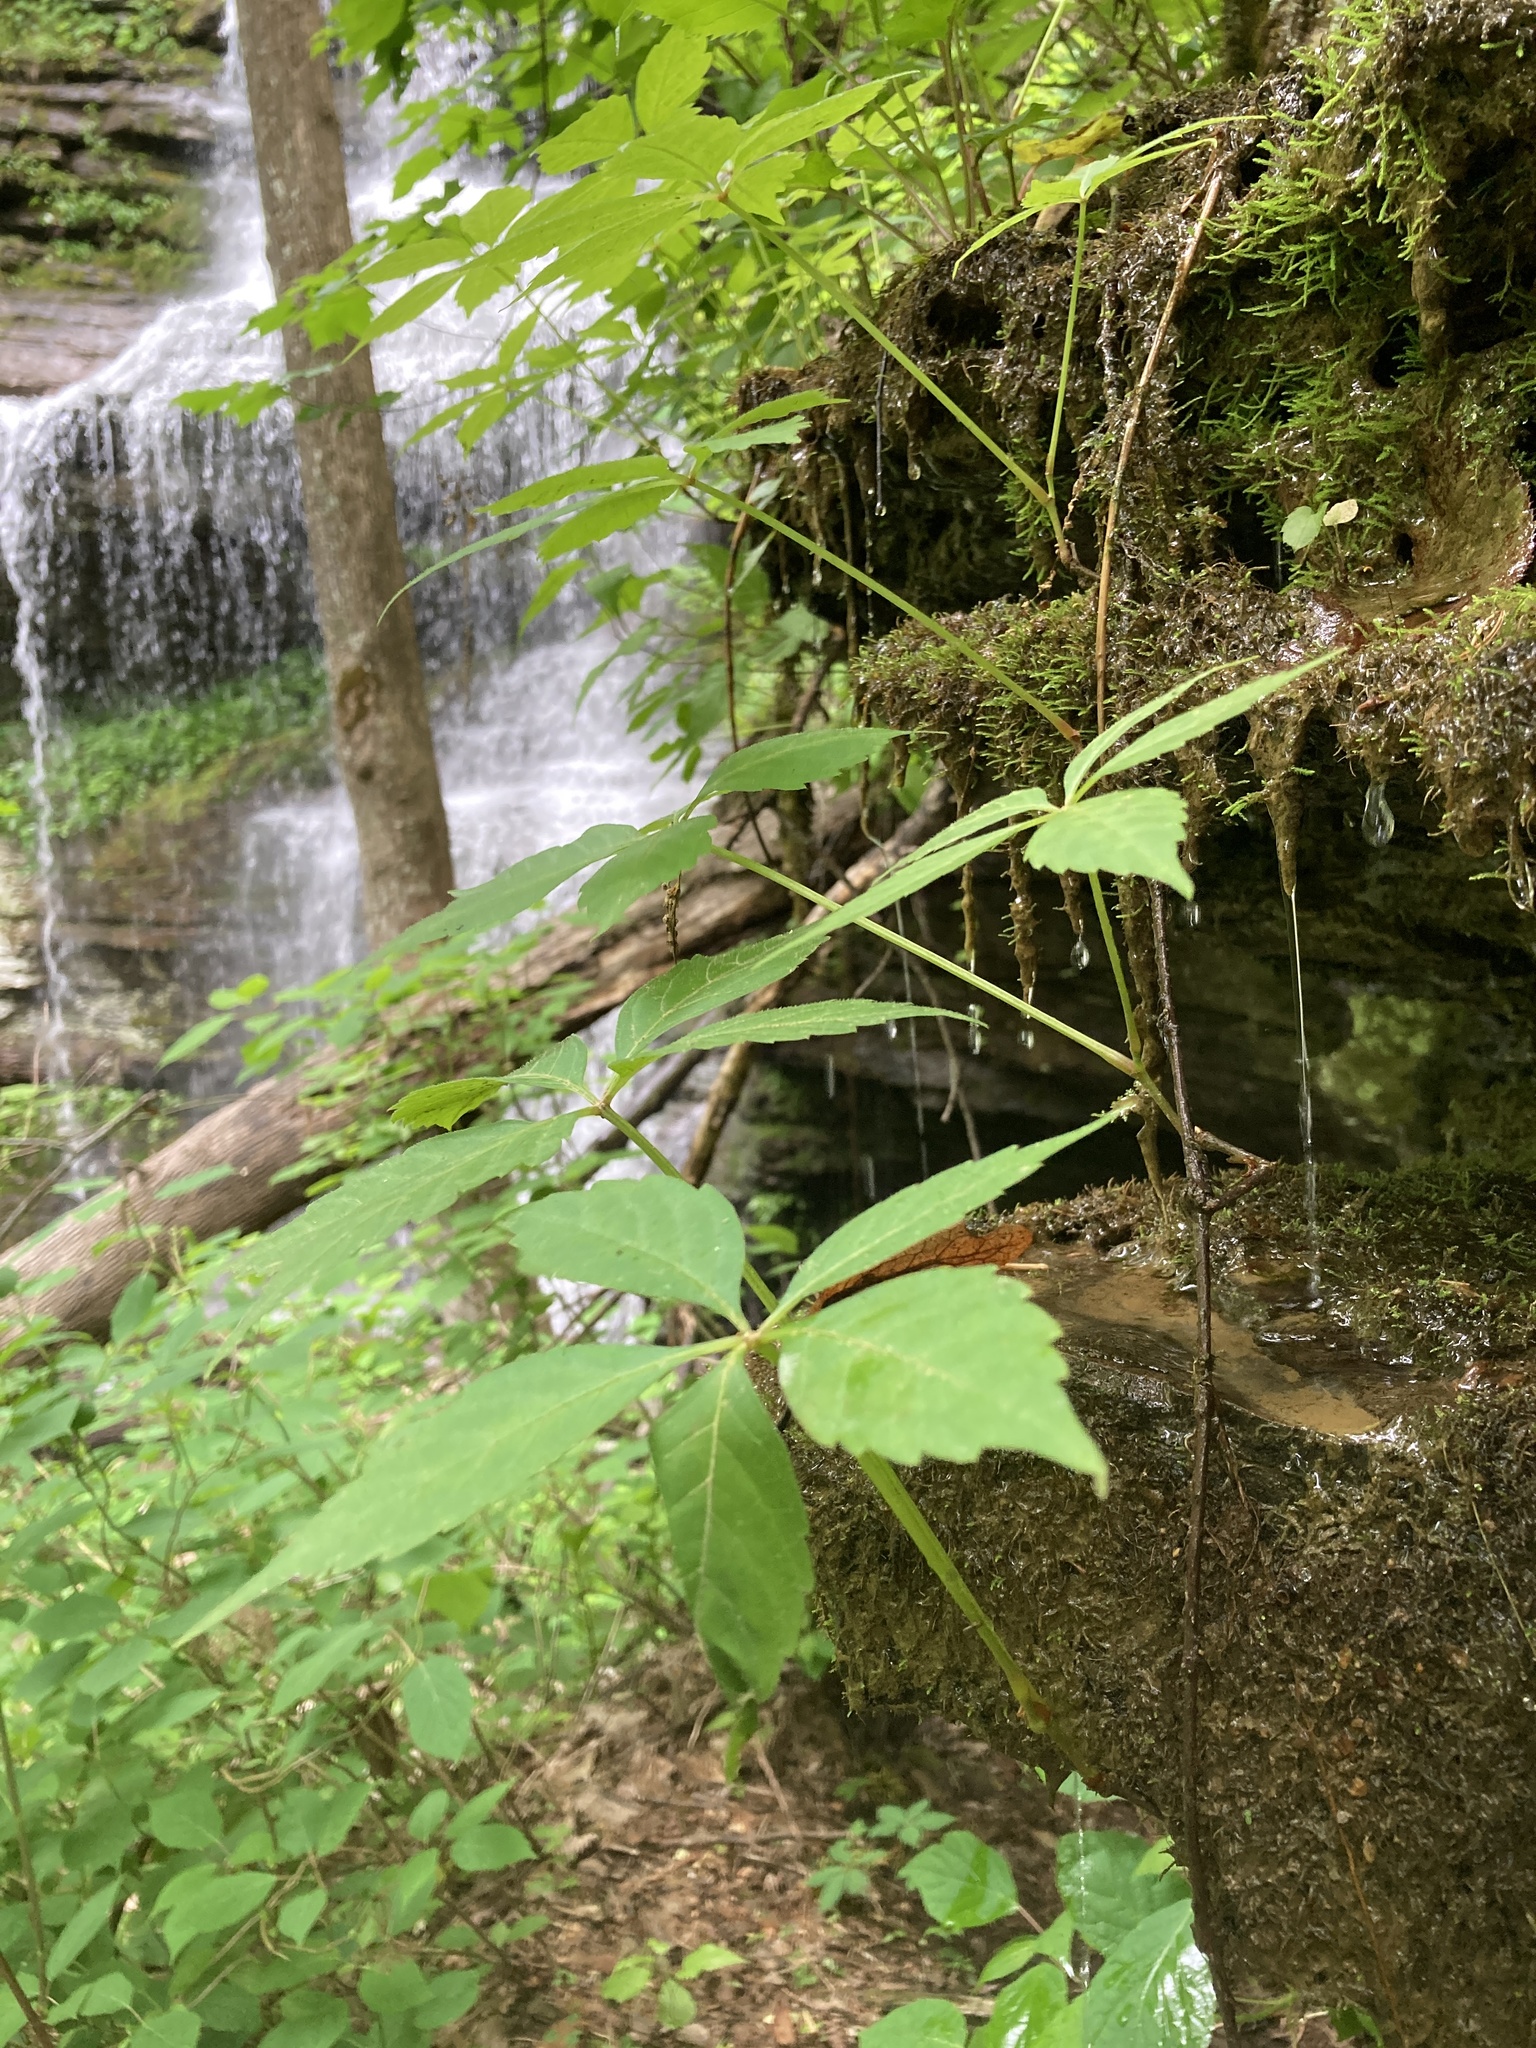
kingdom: Plantae
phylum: Tracheophyta
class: Magnoliopsida
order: Vitales
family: Vitaceae
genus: Parthenocissus
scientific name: Parthenocissus quinquefolia
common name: Virginia-creeper
